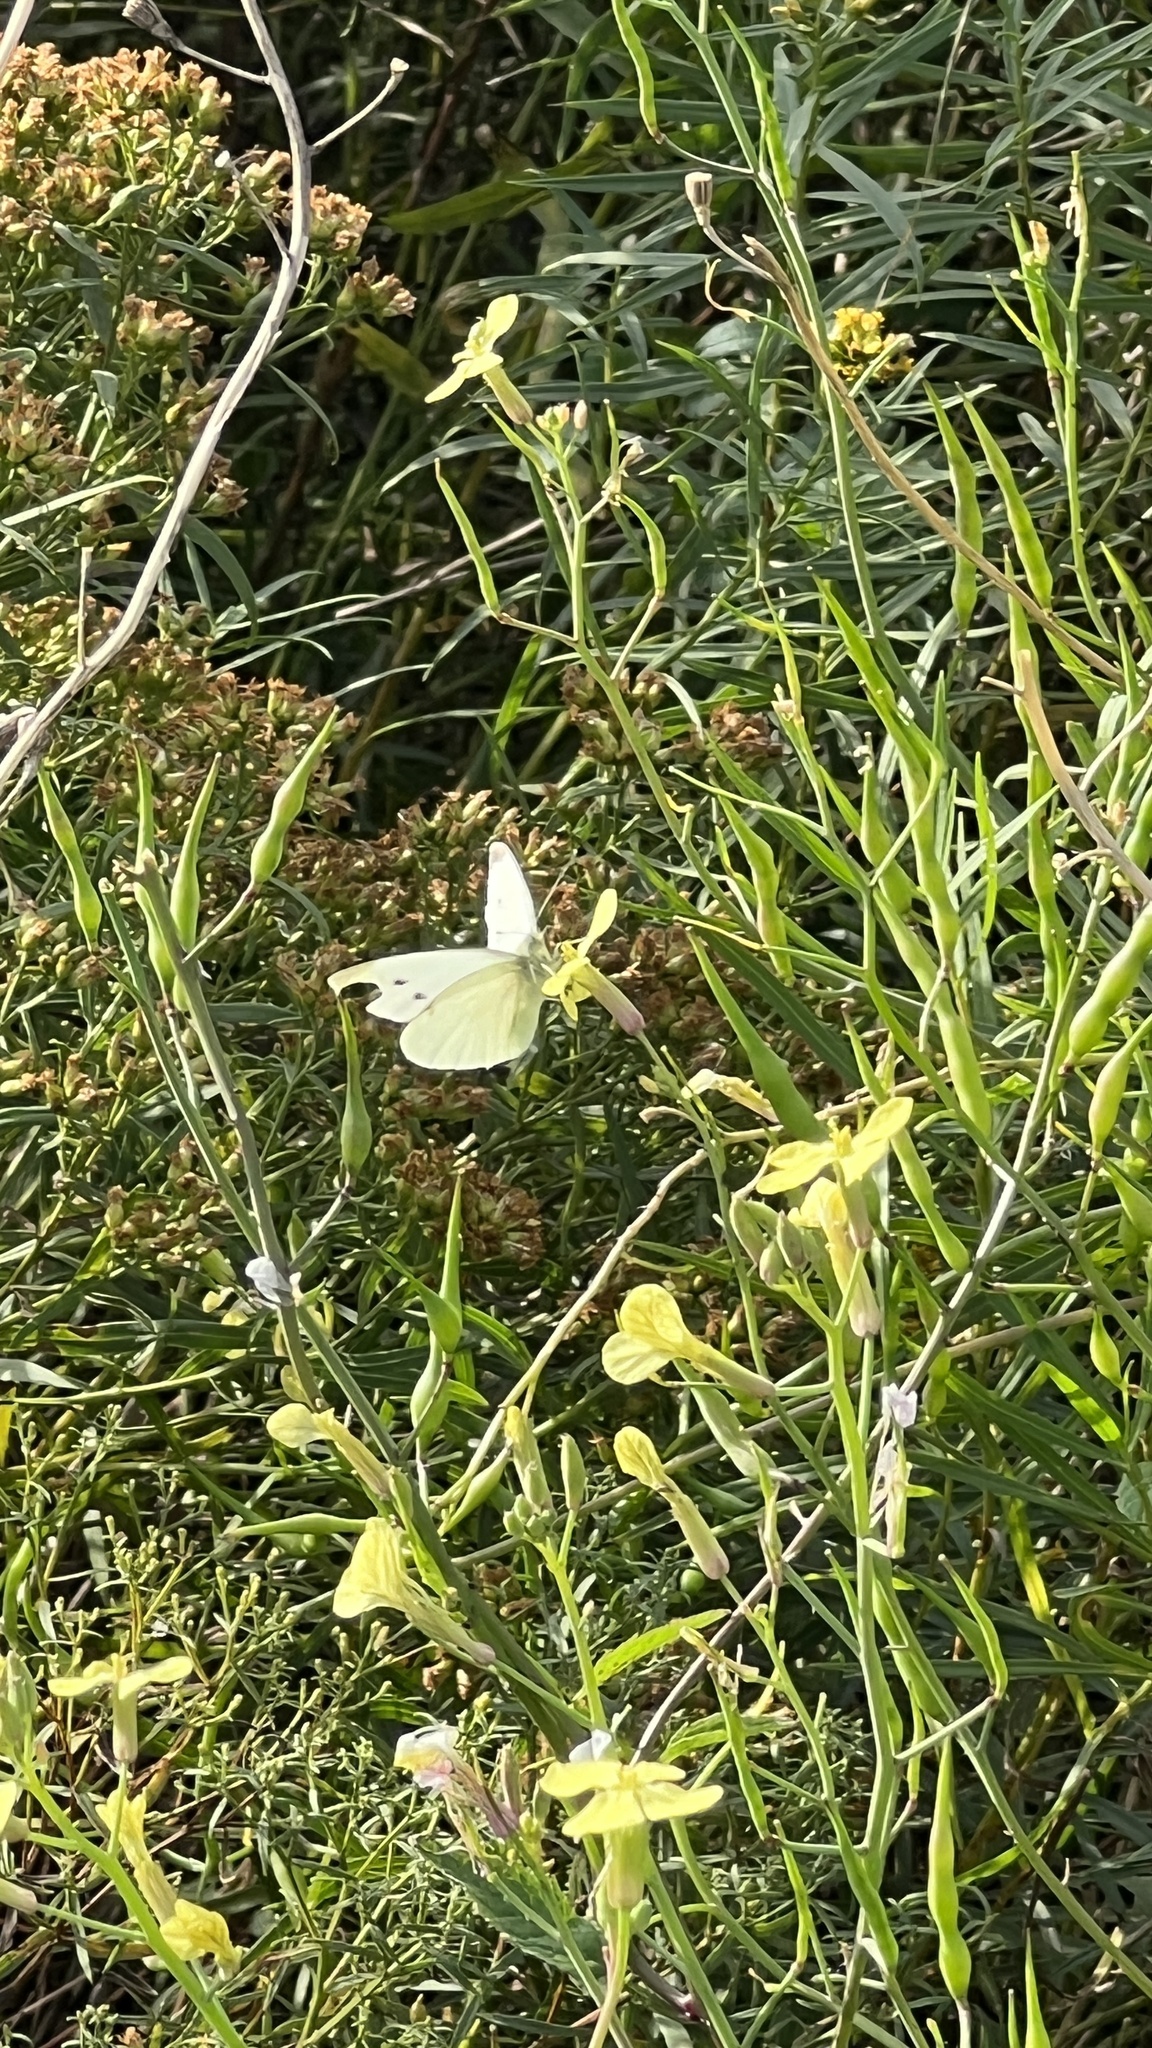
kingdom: Animalia
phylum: Arthropoda
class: Insecta
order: Lepidoptera
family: Pieridae
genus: Pieris
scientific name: Pieris rapae
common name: Small white
